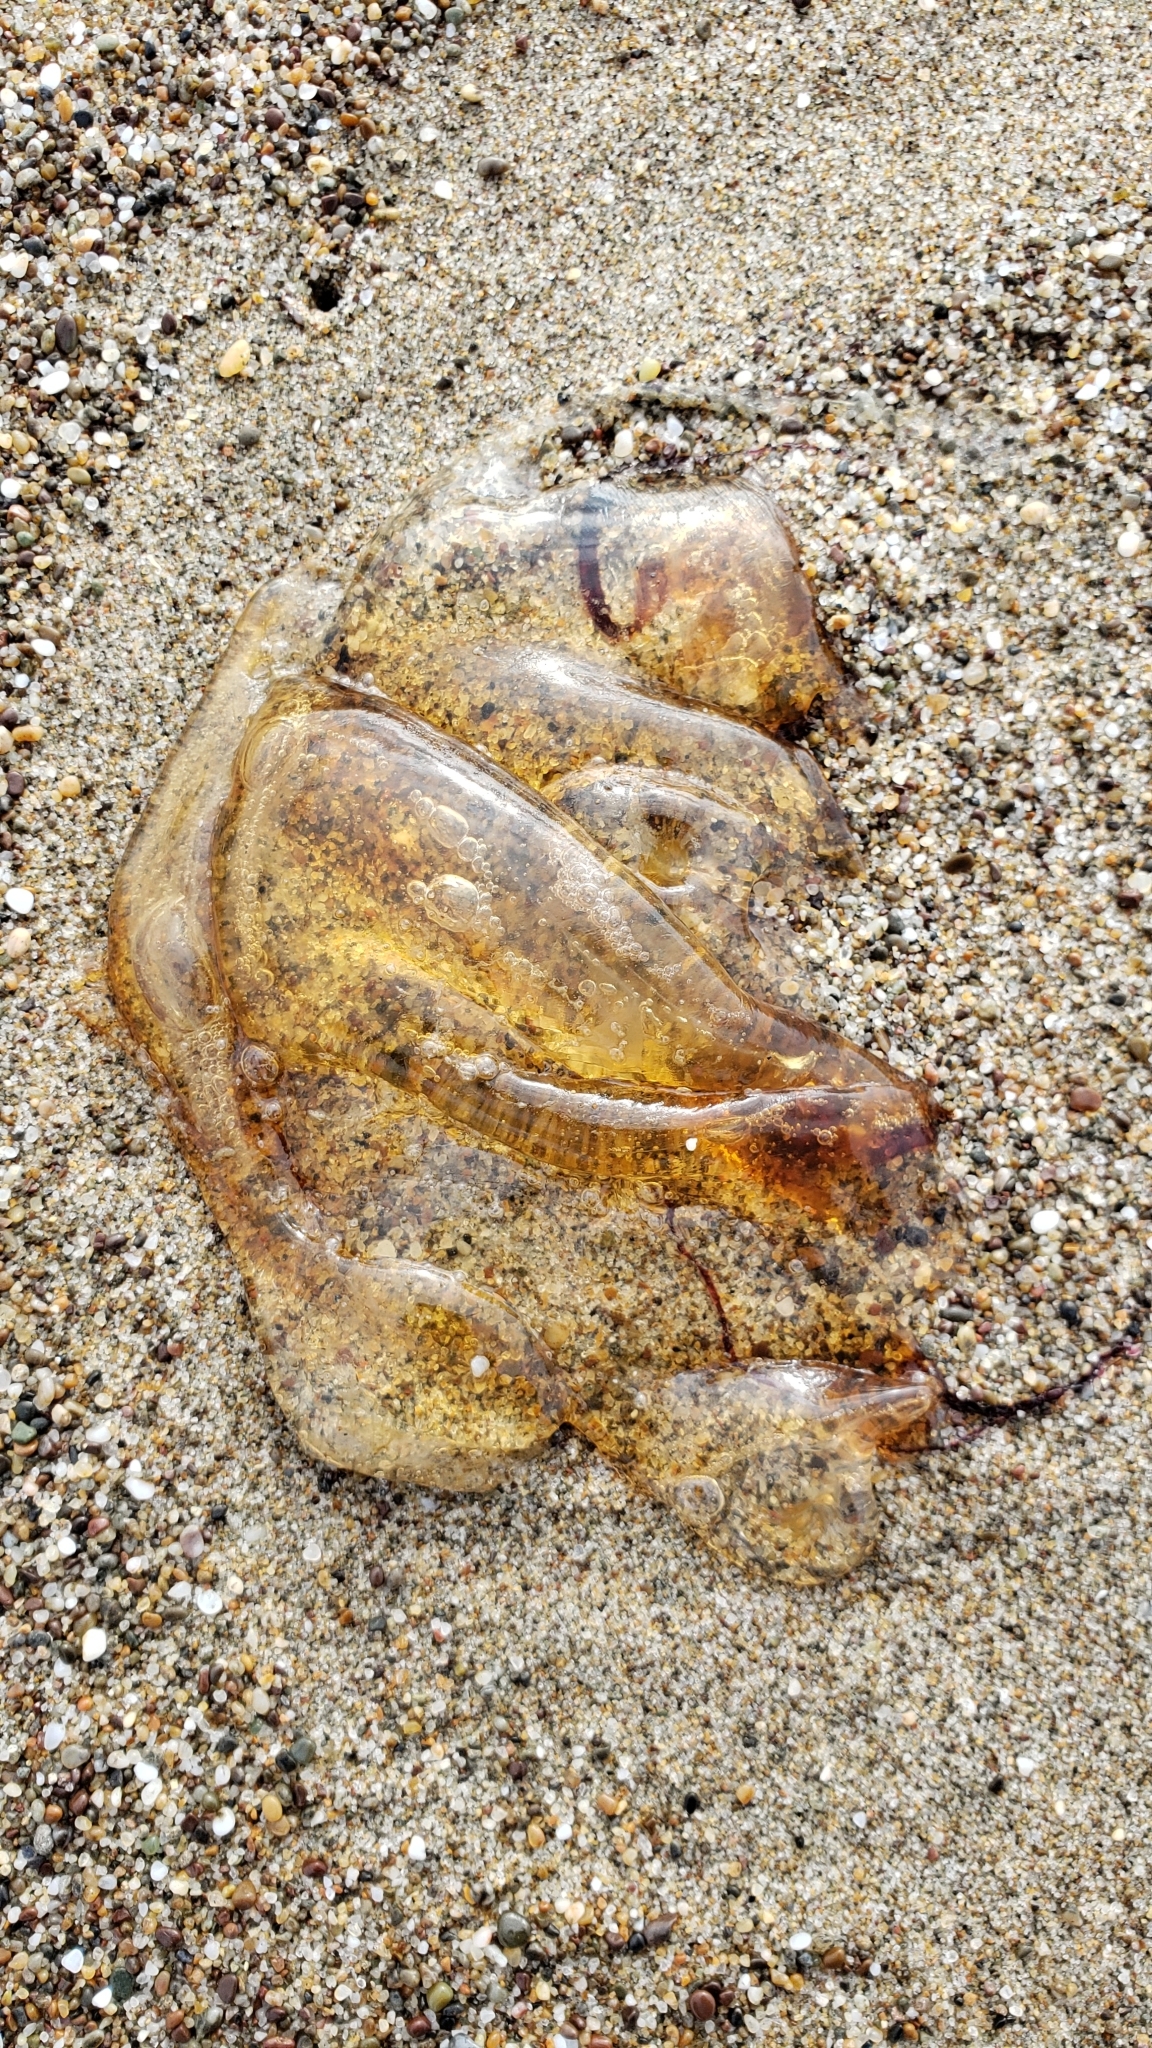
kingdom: Animalia
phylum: Cnidaria
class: Scyphozoa
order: Semaeostomeae
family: Pelagiidae
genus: Chrysaora
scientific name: Chrysaora fuscescens
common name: Sea nettle
